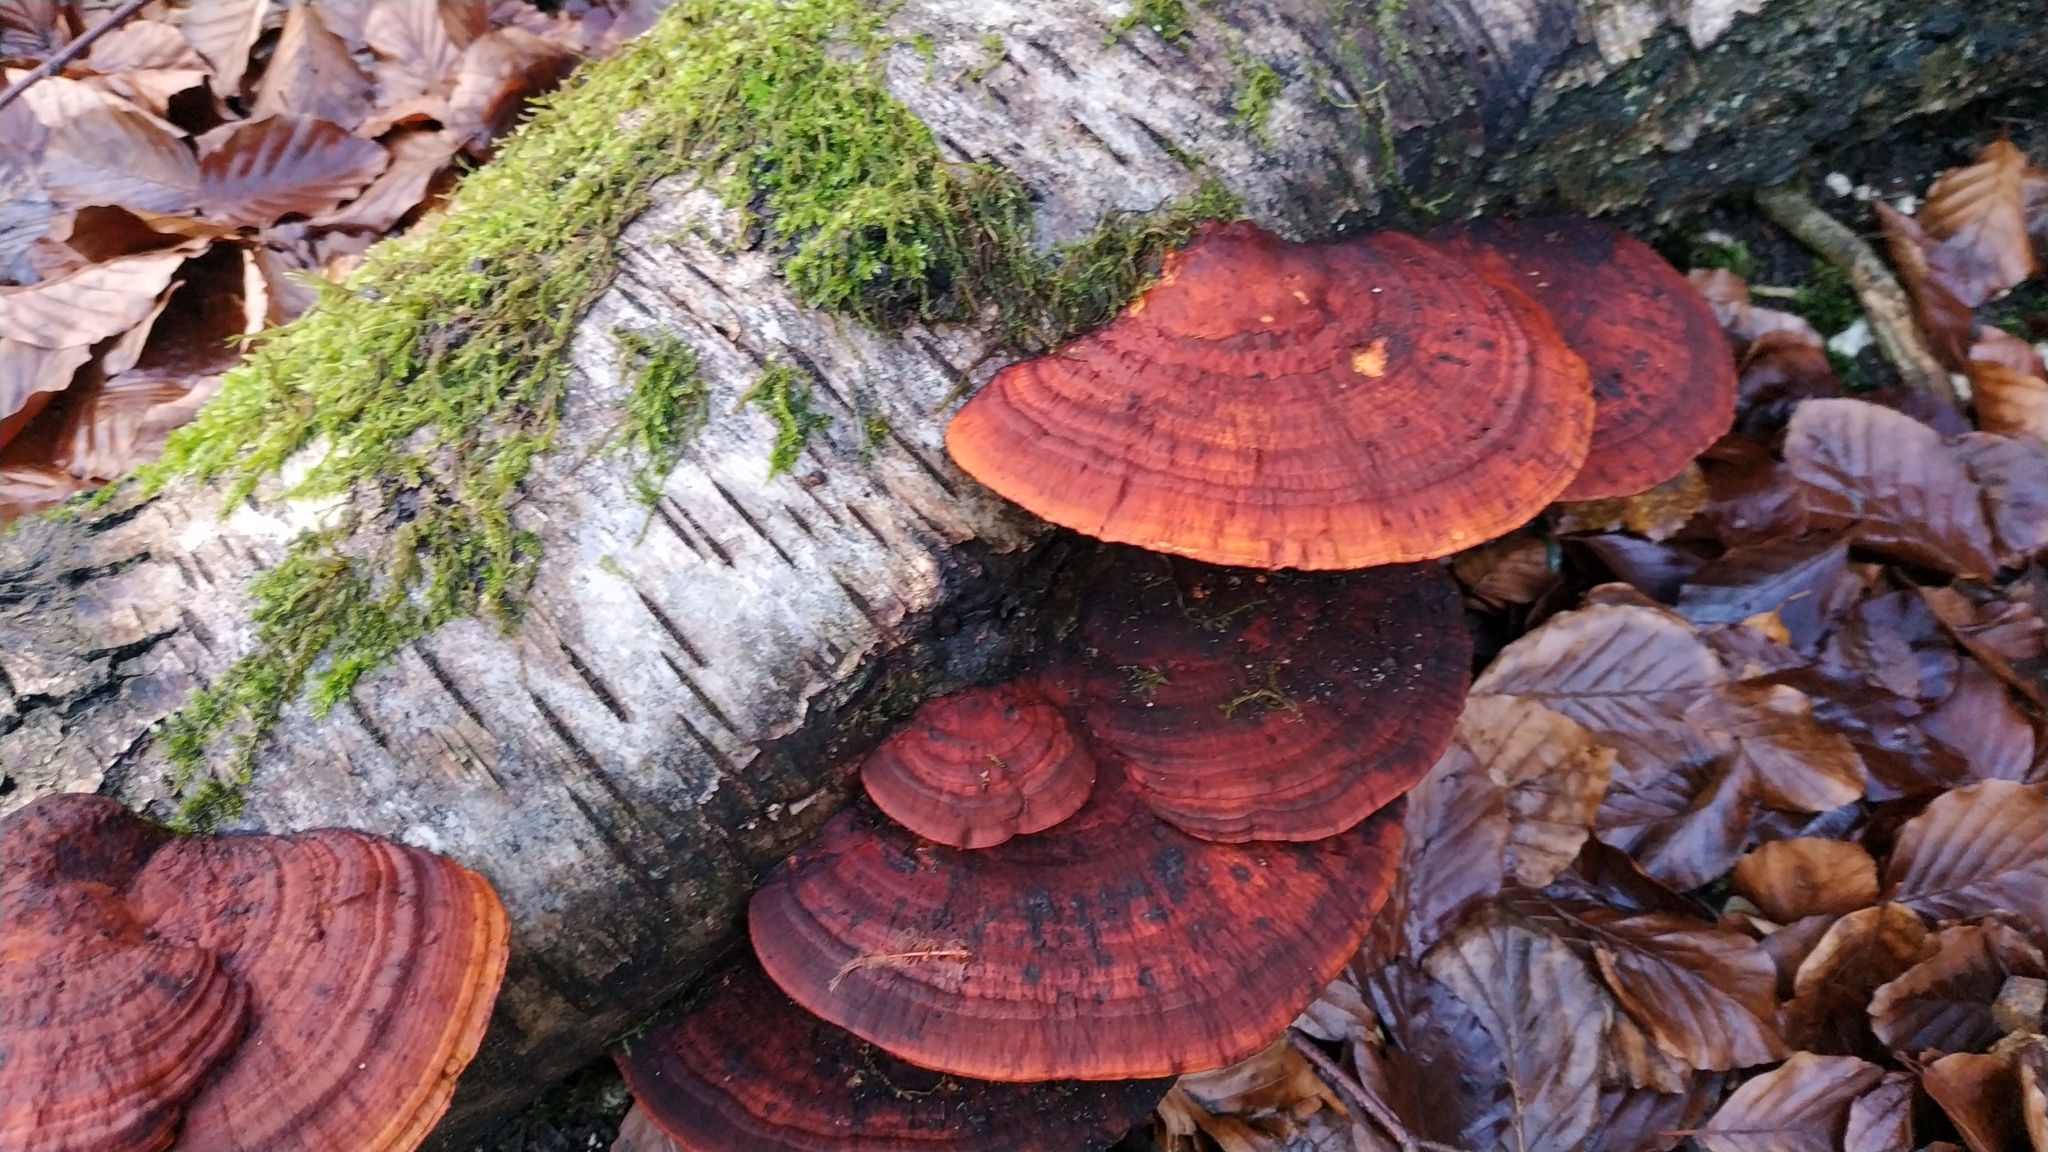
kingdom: Fungi
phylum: Basidiomycota
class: Agaricomycetes
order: Polyporales
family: Polyporaceae
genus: Daedaleopsis
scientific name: Daedaleopsis confragosa
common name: Blushing bracket
